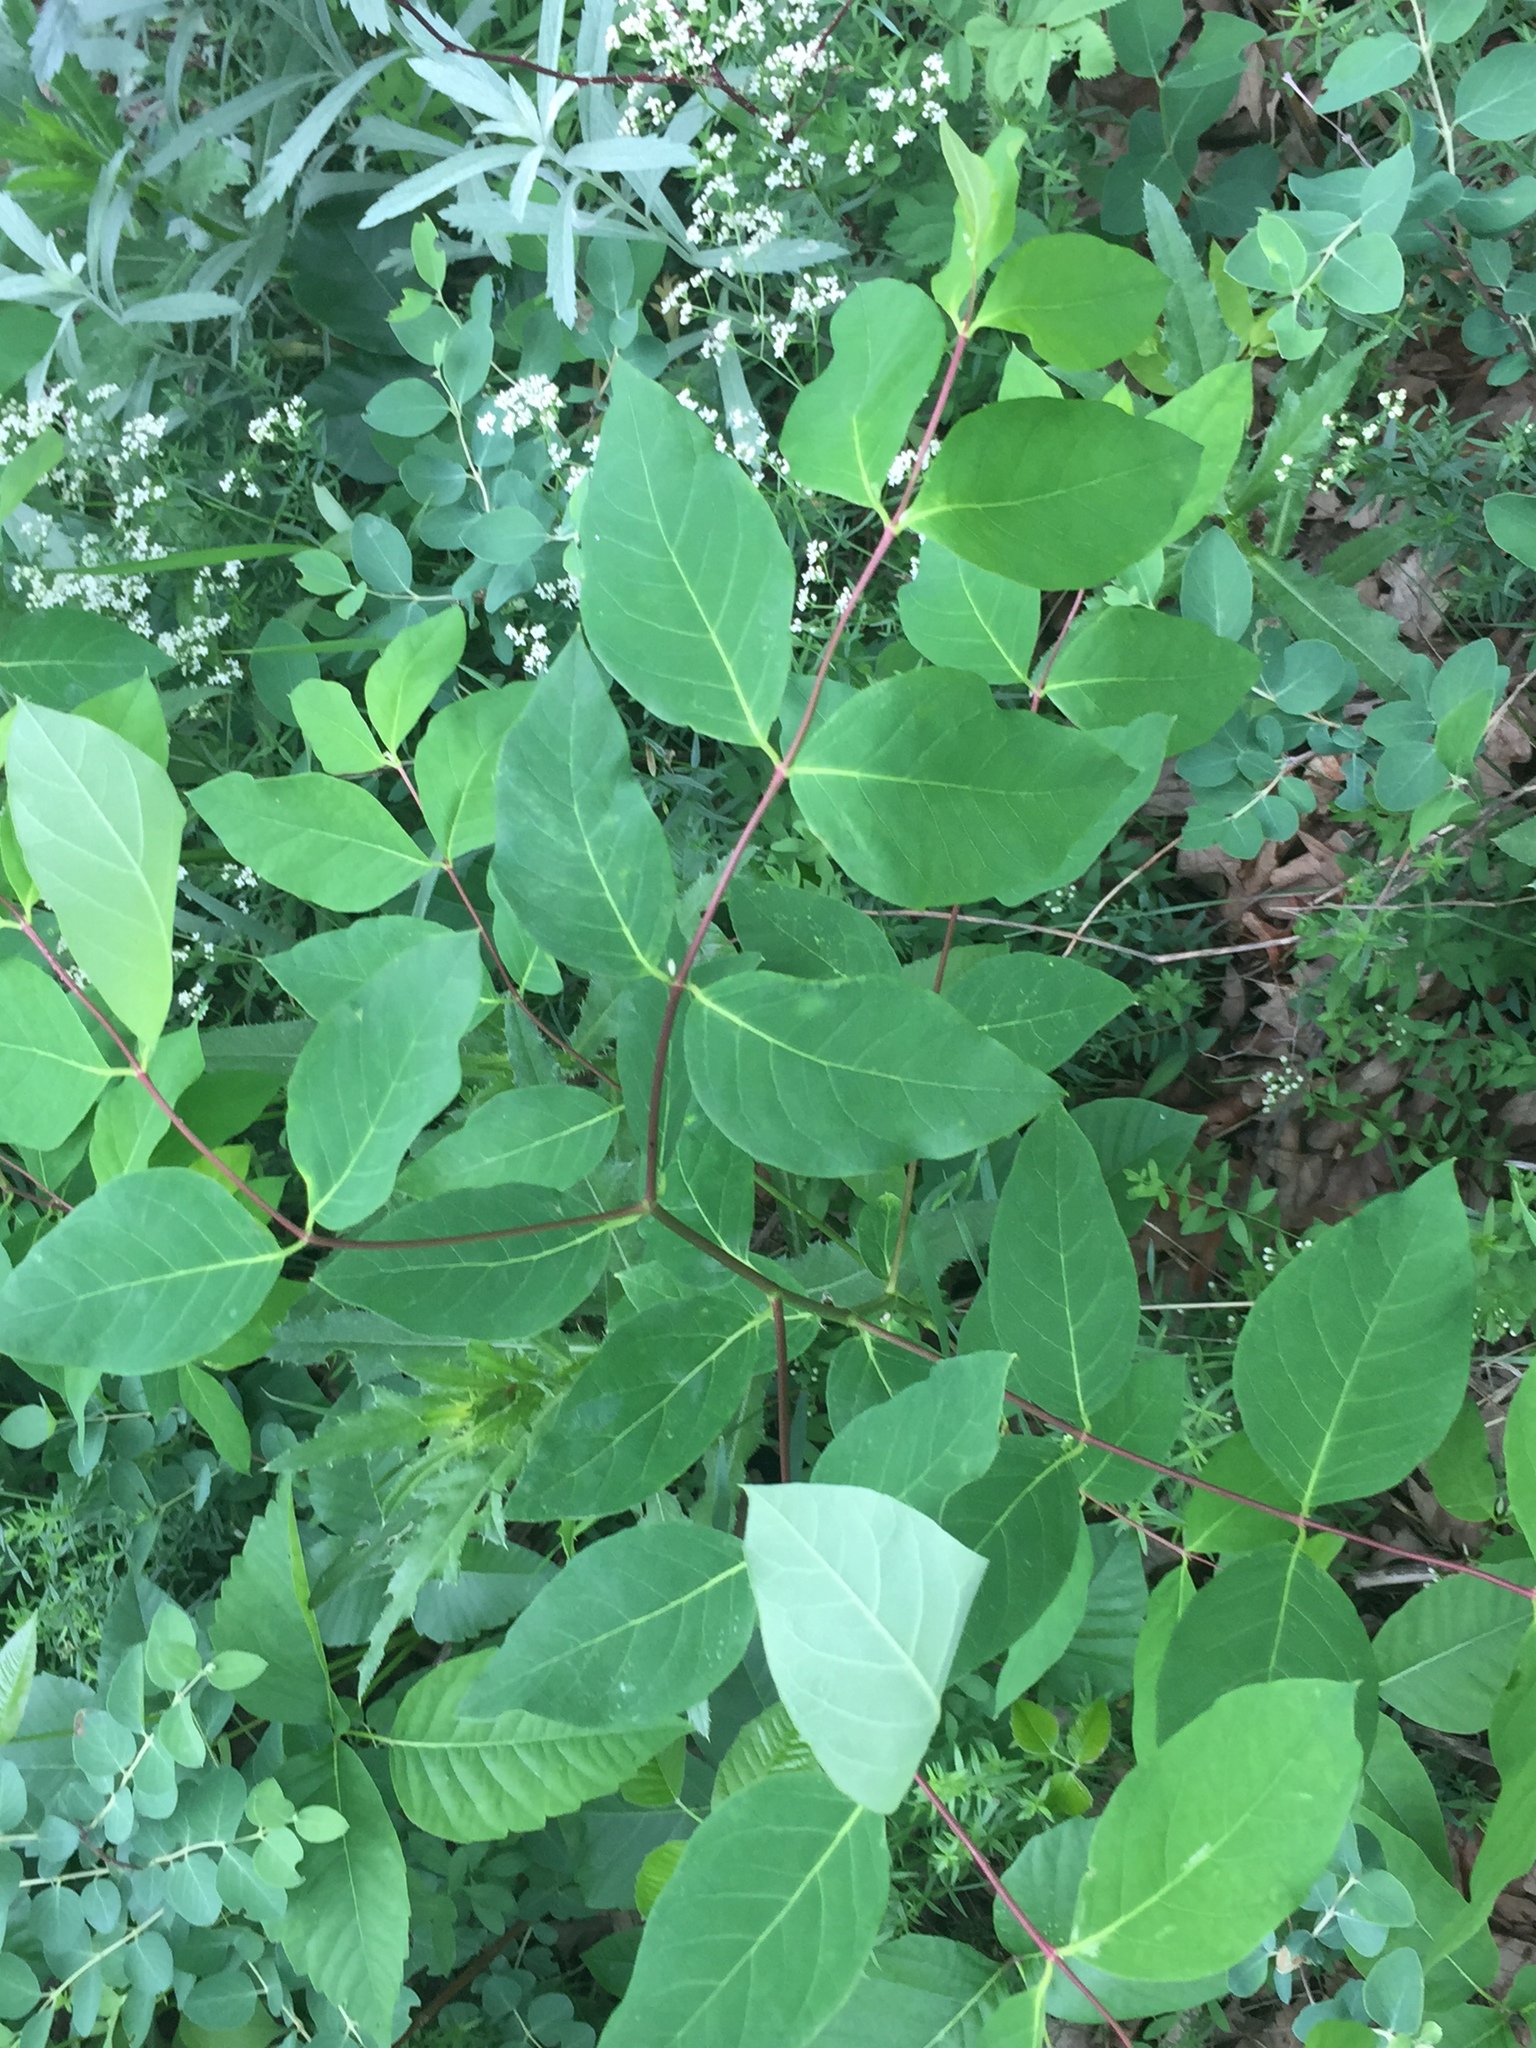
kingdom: Plantae
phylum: Tracheophyta
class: Magnoliopsida
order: Gentianales
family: Apocynaceae
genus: Apocynum
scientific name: Apocynum androsaemifolium
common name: Spreading dogbane
